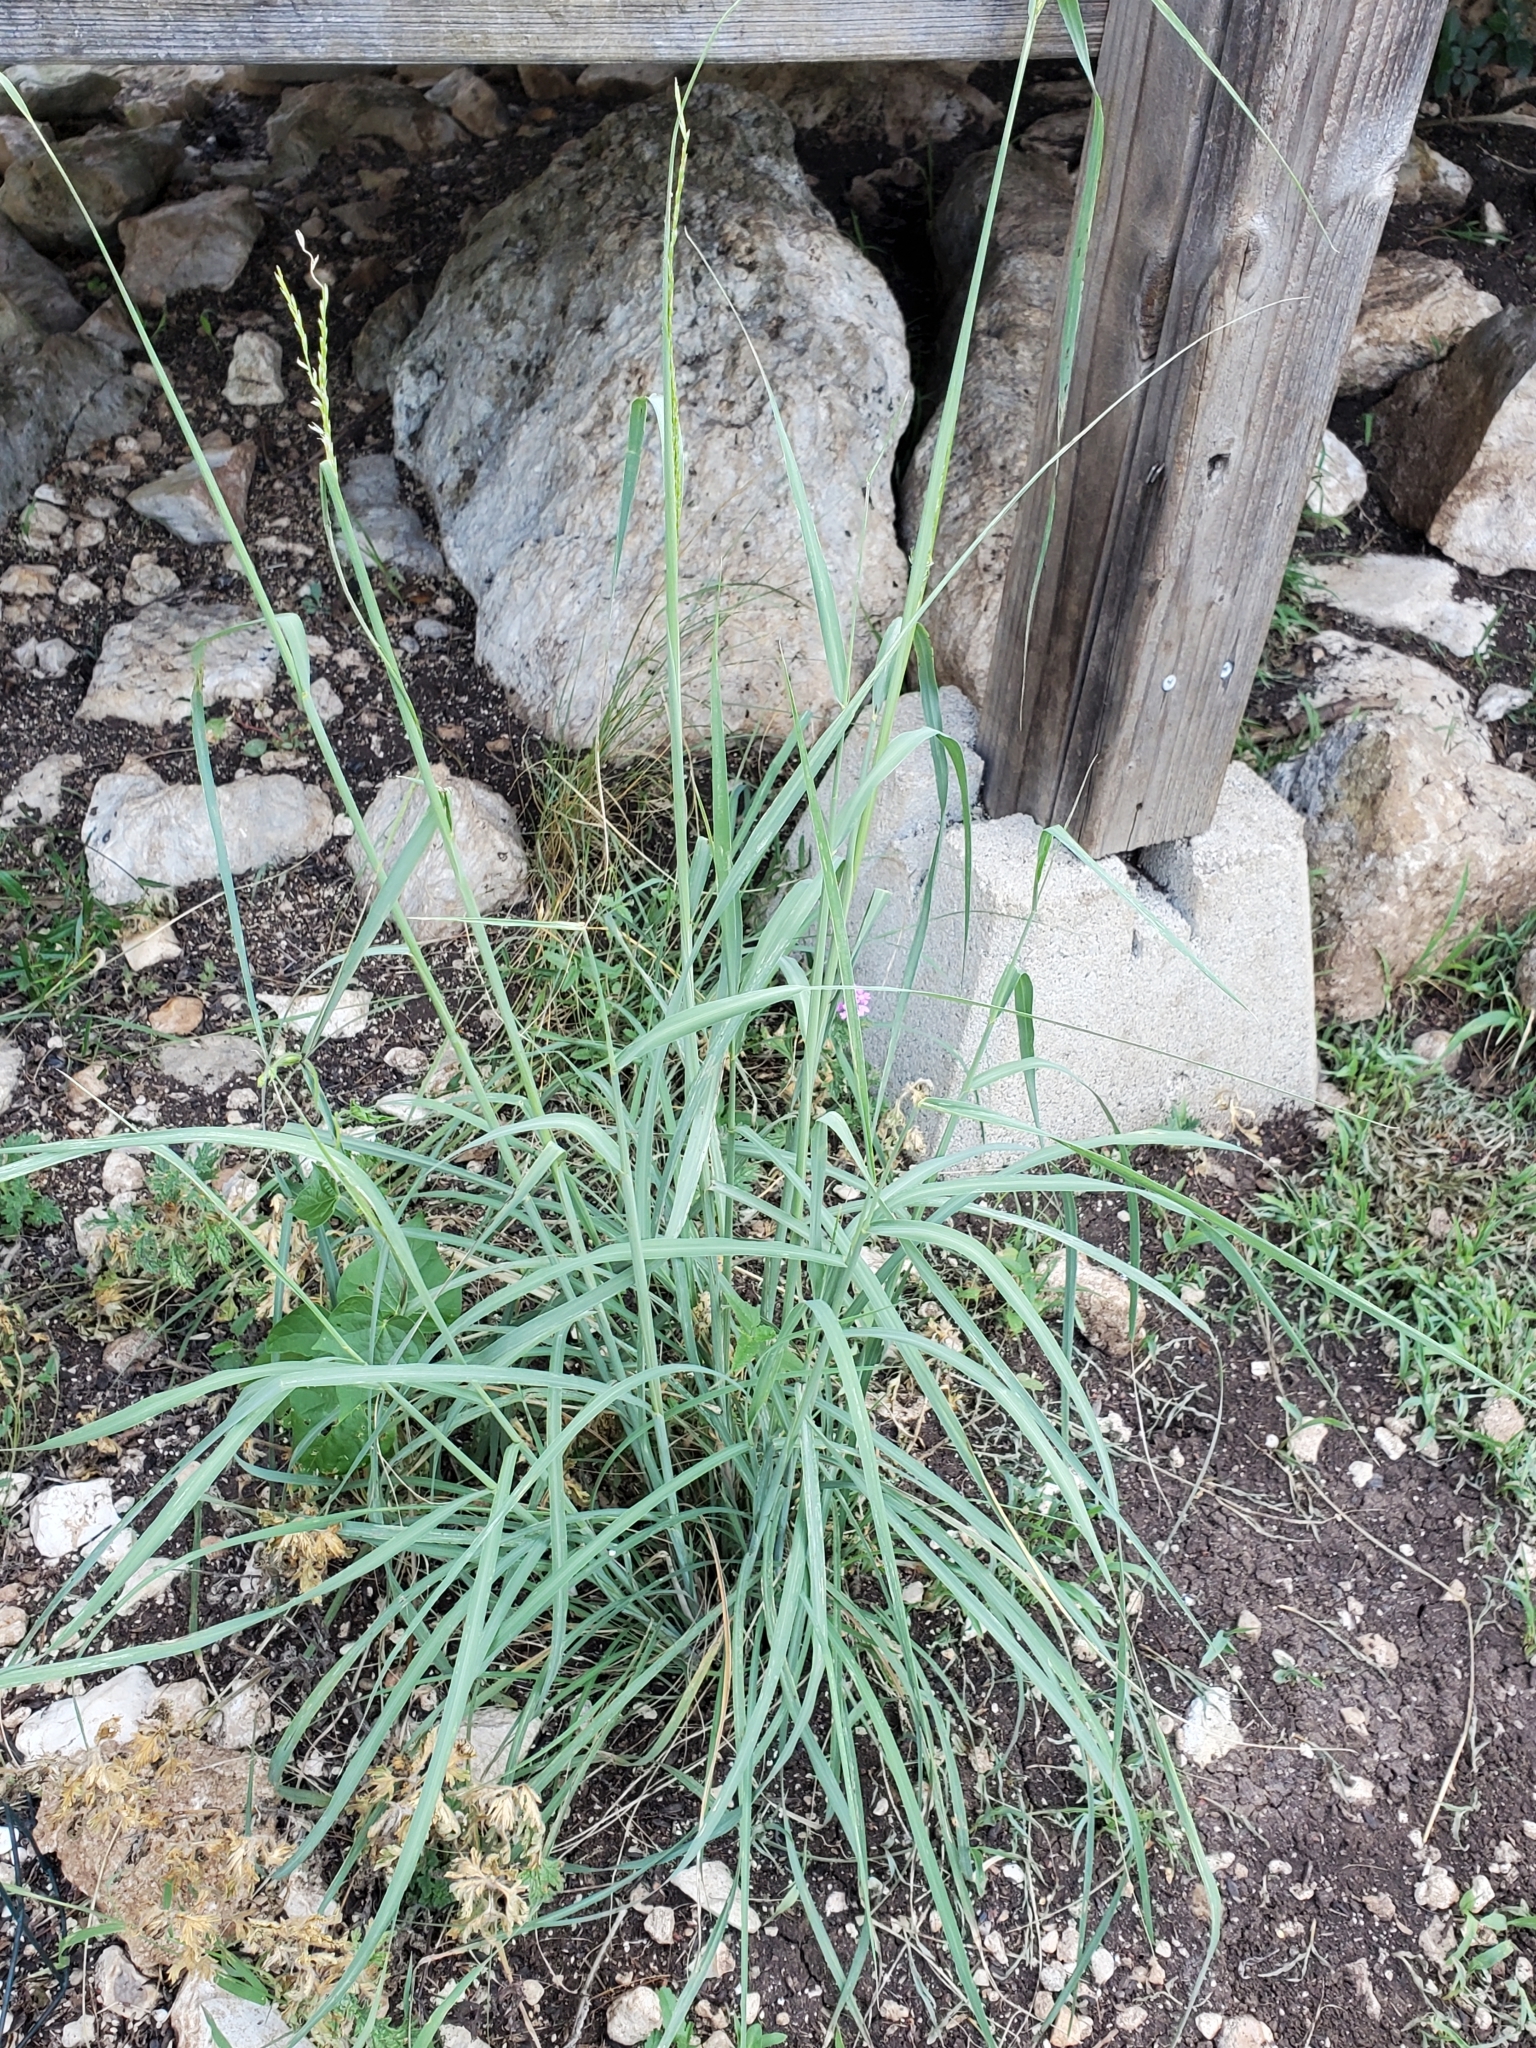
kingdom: Plantae
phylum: Tracheophyta
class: Liliopsida
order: Poales
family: Poaceae
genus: Disakisperma
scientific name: Disakisperma dubium
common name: Green sprangletop
